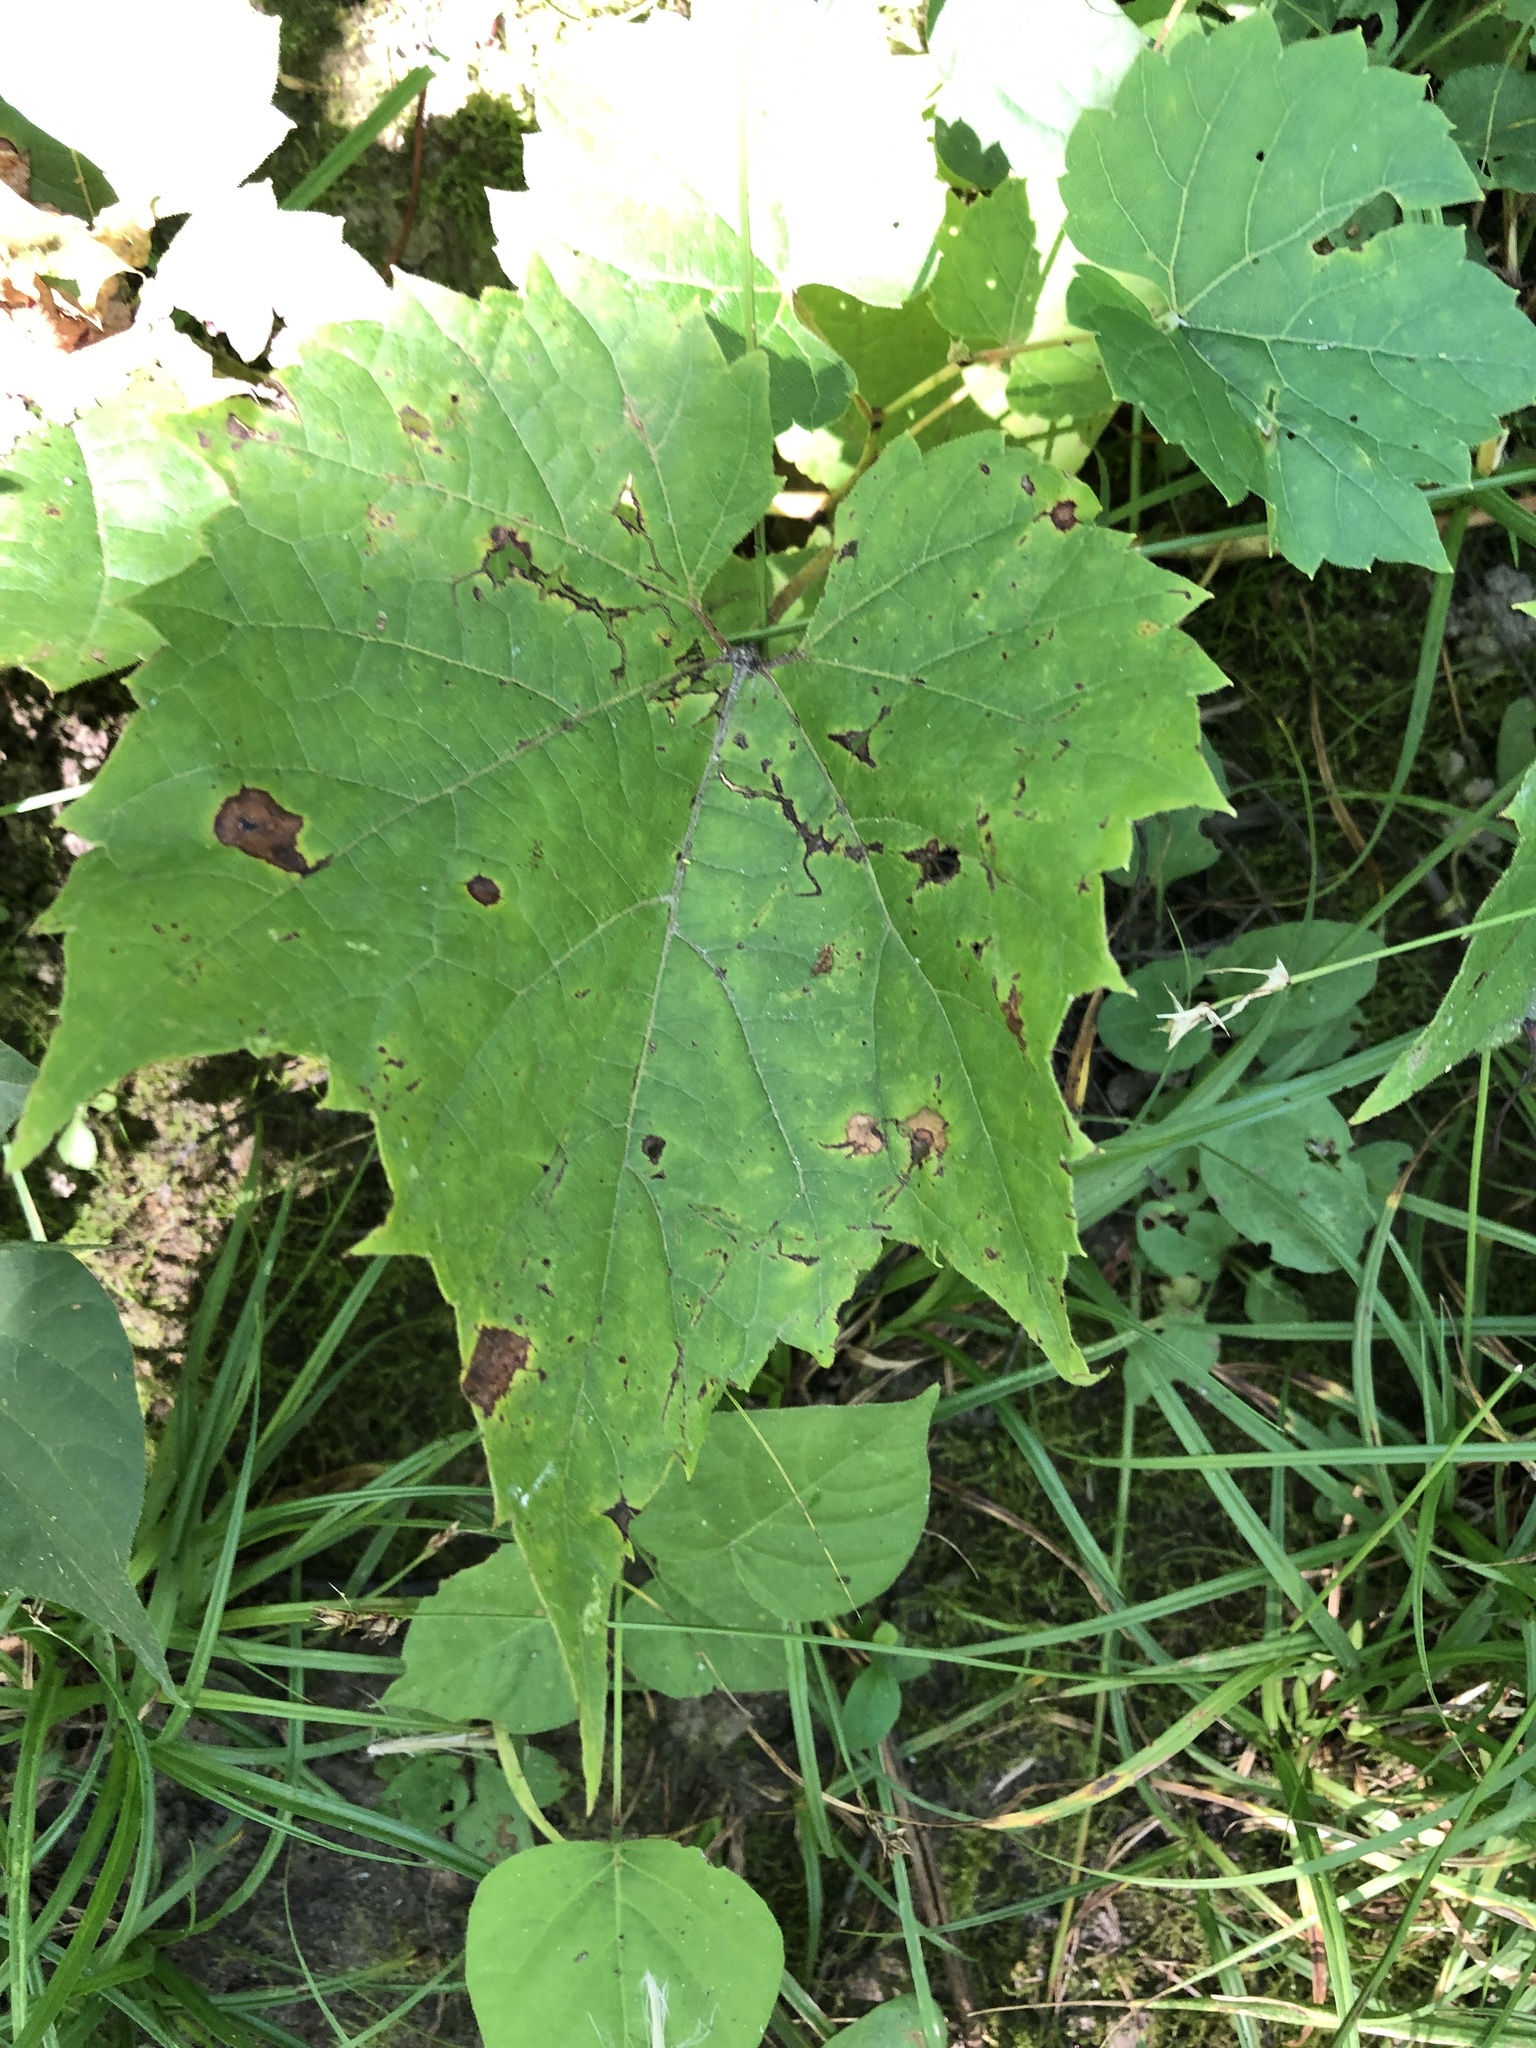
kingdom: Plantae
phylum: Tracheophyta
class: Magnoliopsida
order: Vitales
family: Vitaceae
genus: Vitis
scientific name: Vitis riparia
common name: Frost grape
